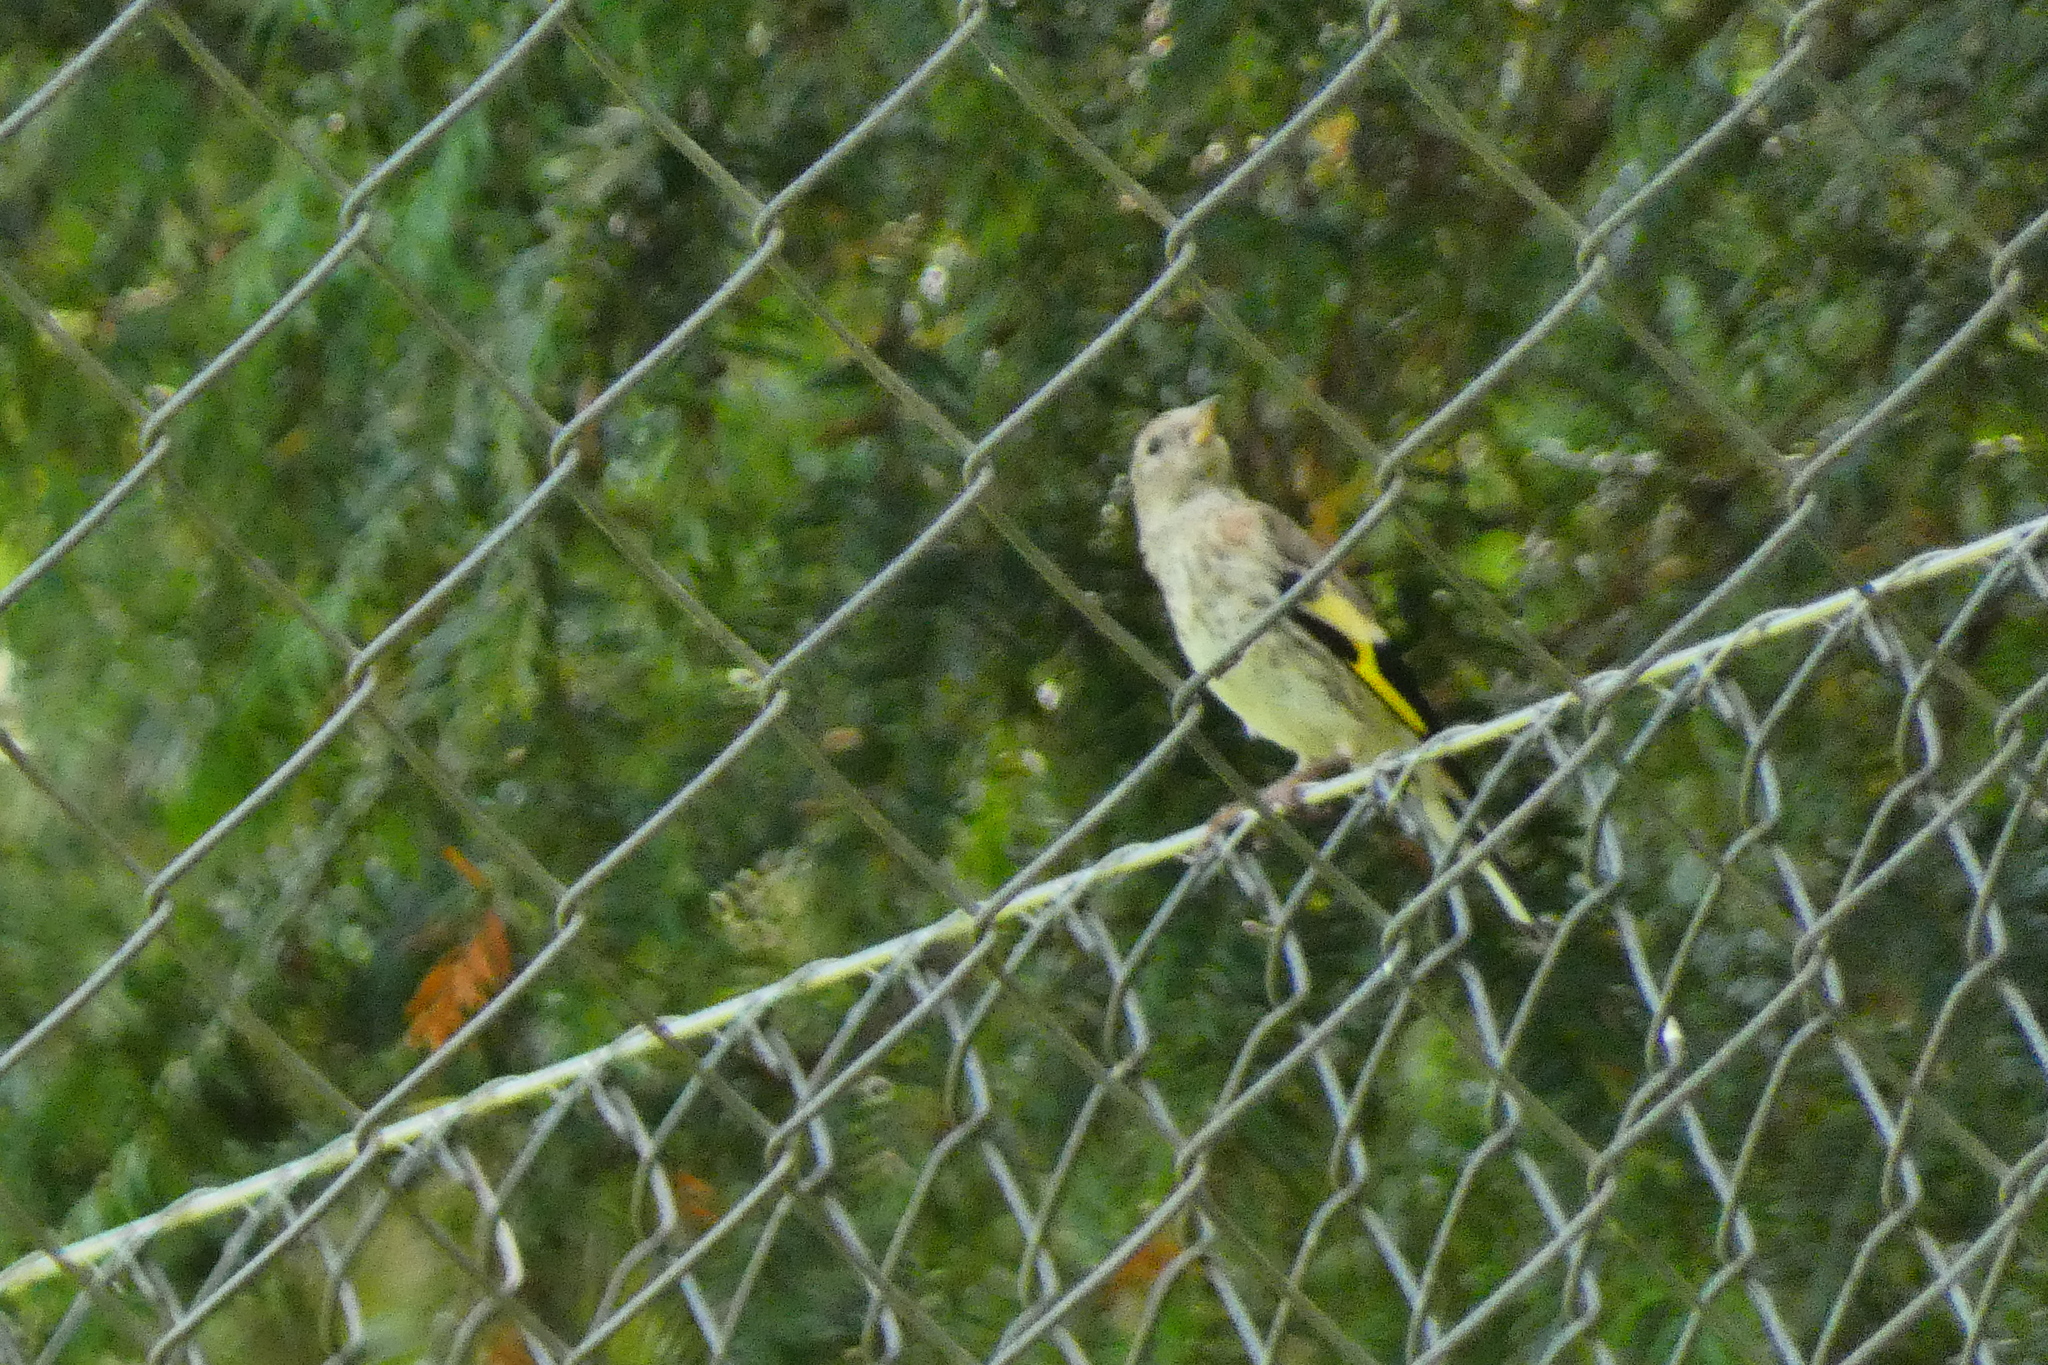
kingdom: Animalia
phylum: Chordata
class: Aves
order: Passeriformes
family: Fringillidae
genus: Carduelis
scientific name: Carduelis carduelis
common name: European goldfinch
